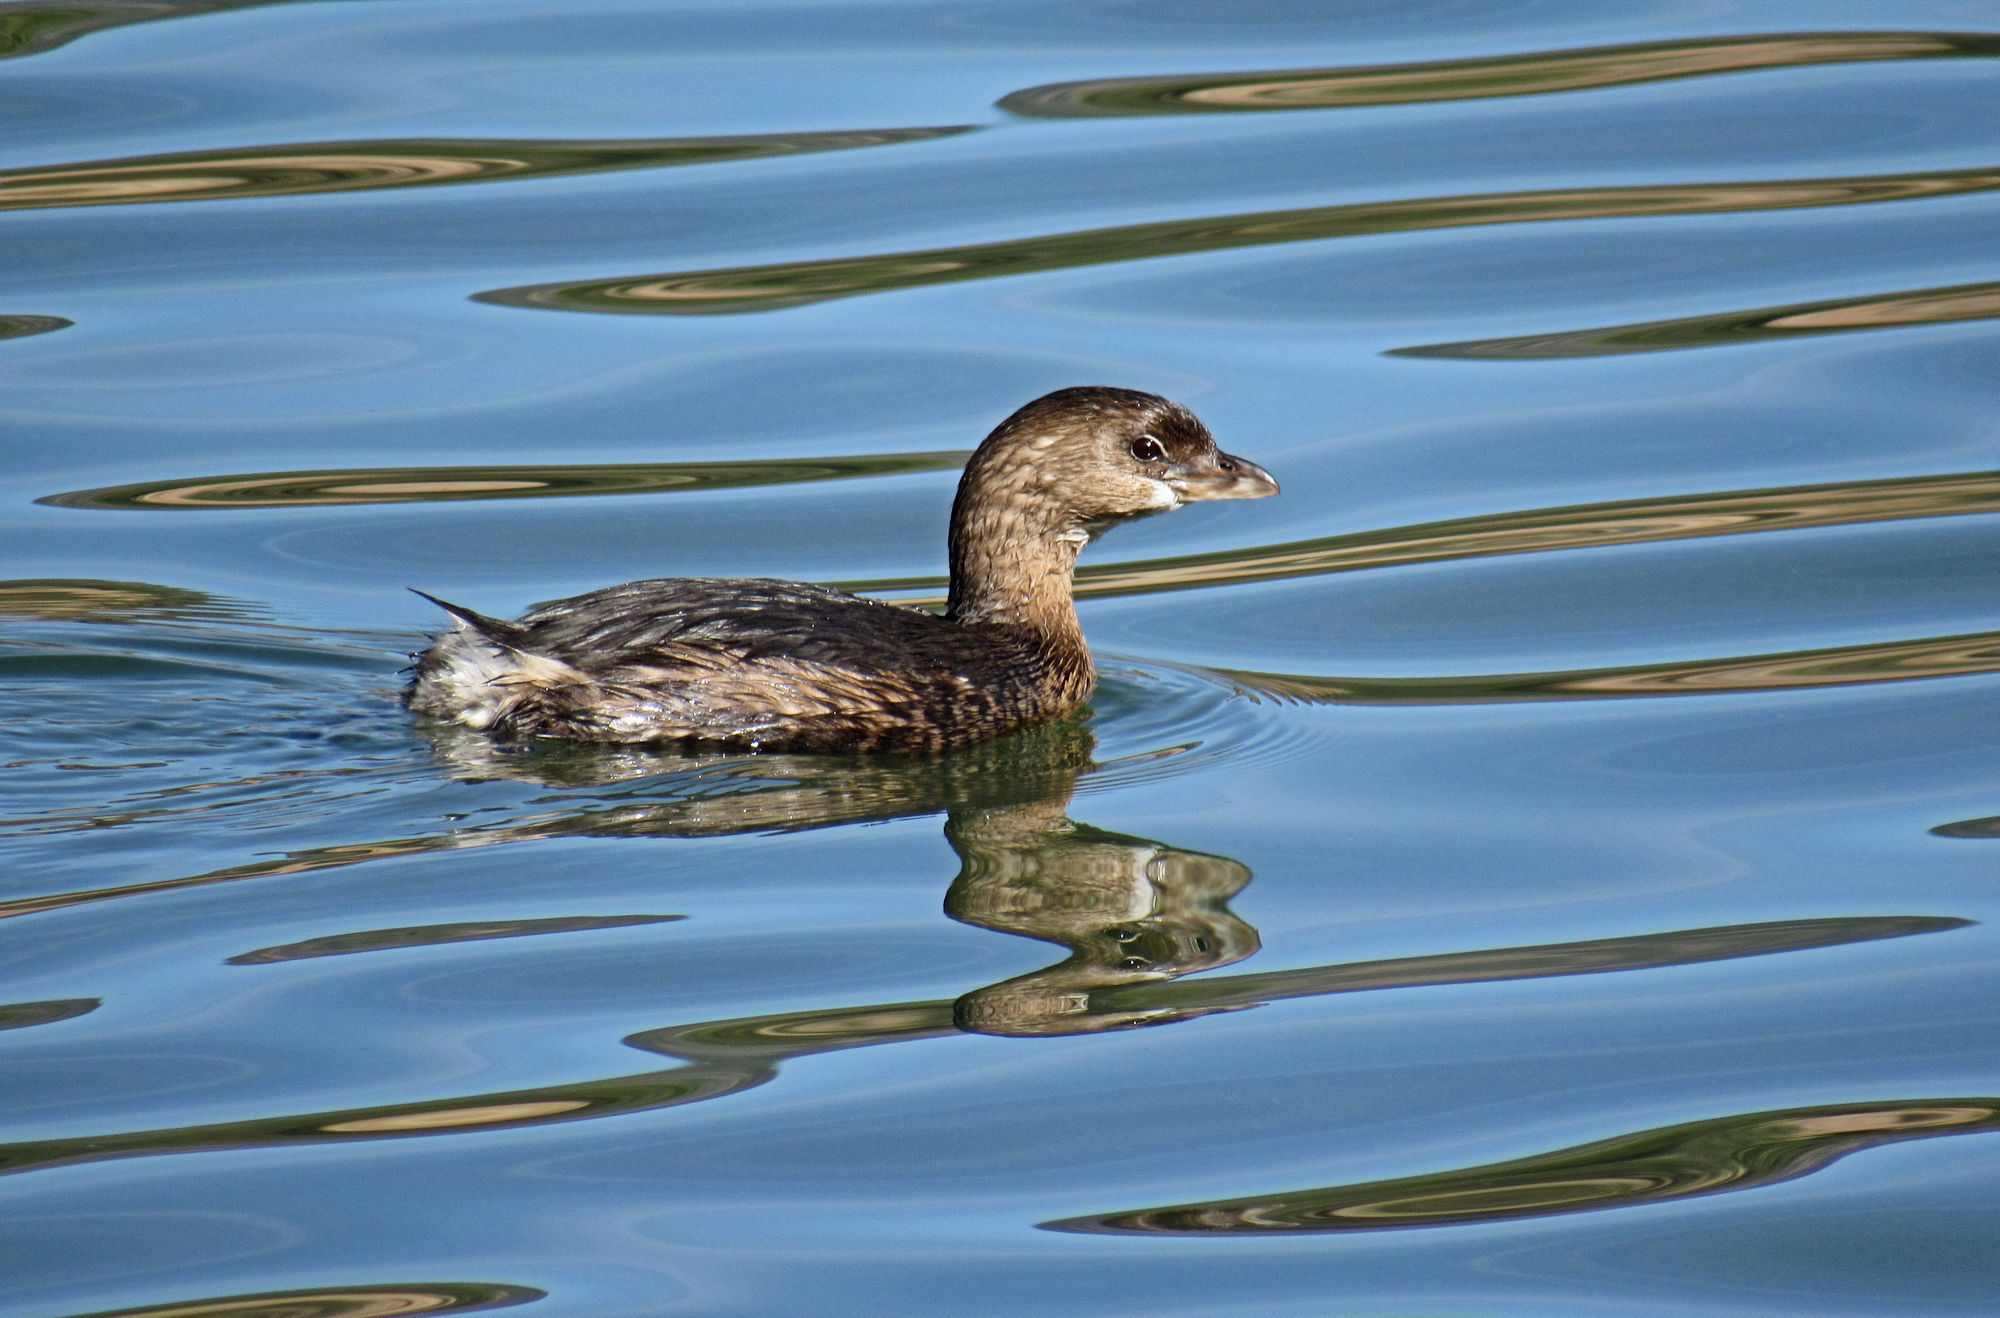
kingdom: Animalia
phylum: Chordata
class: Aves
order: Podicipediformes
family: Podicipedidae
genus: Podilymbus
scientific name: Podilymbus podiceps
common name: Pied-billed grebe
